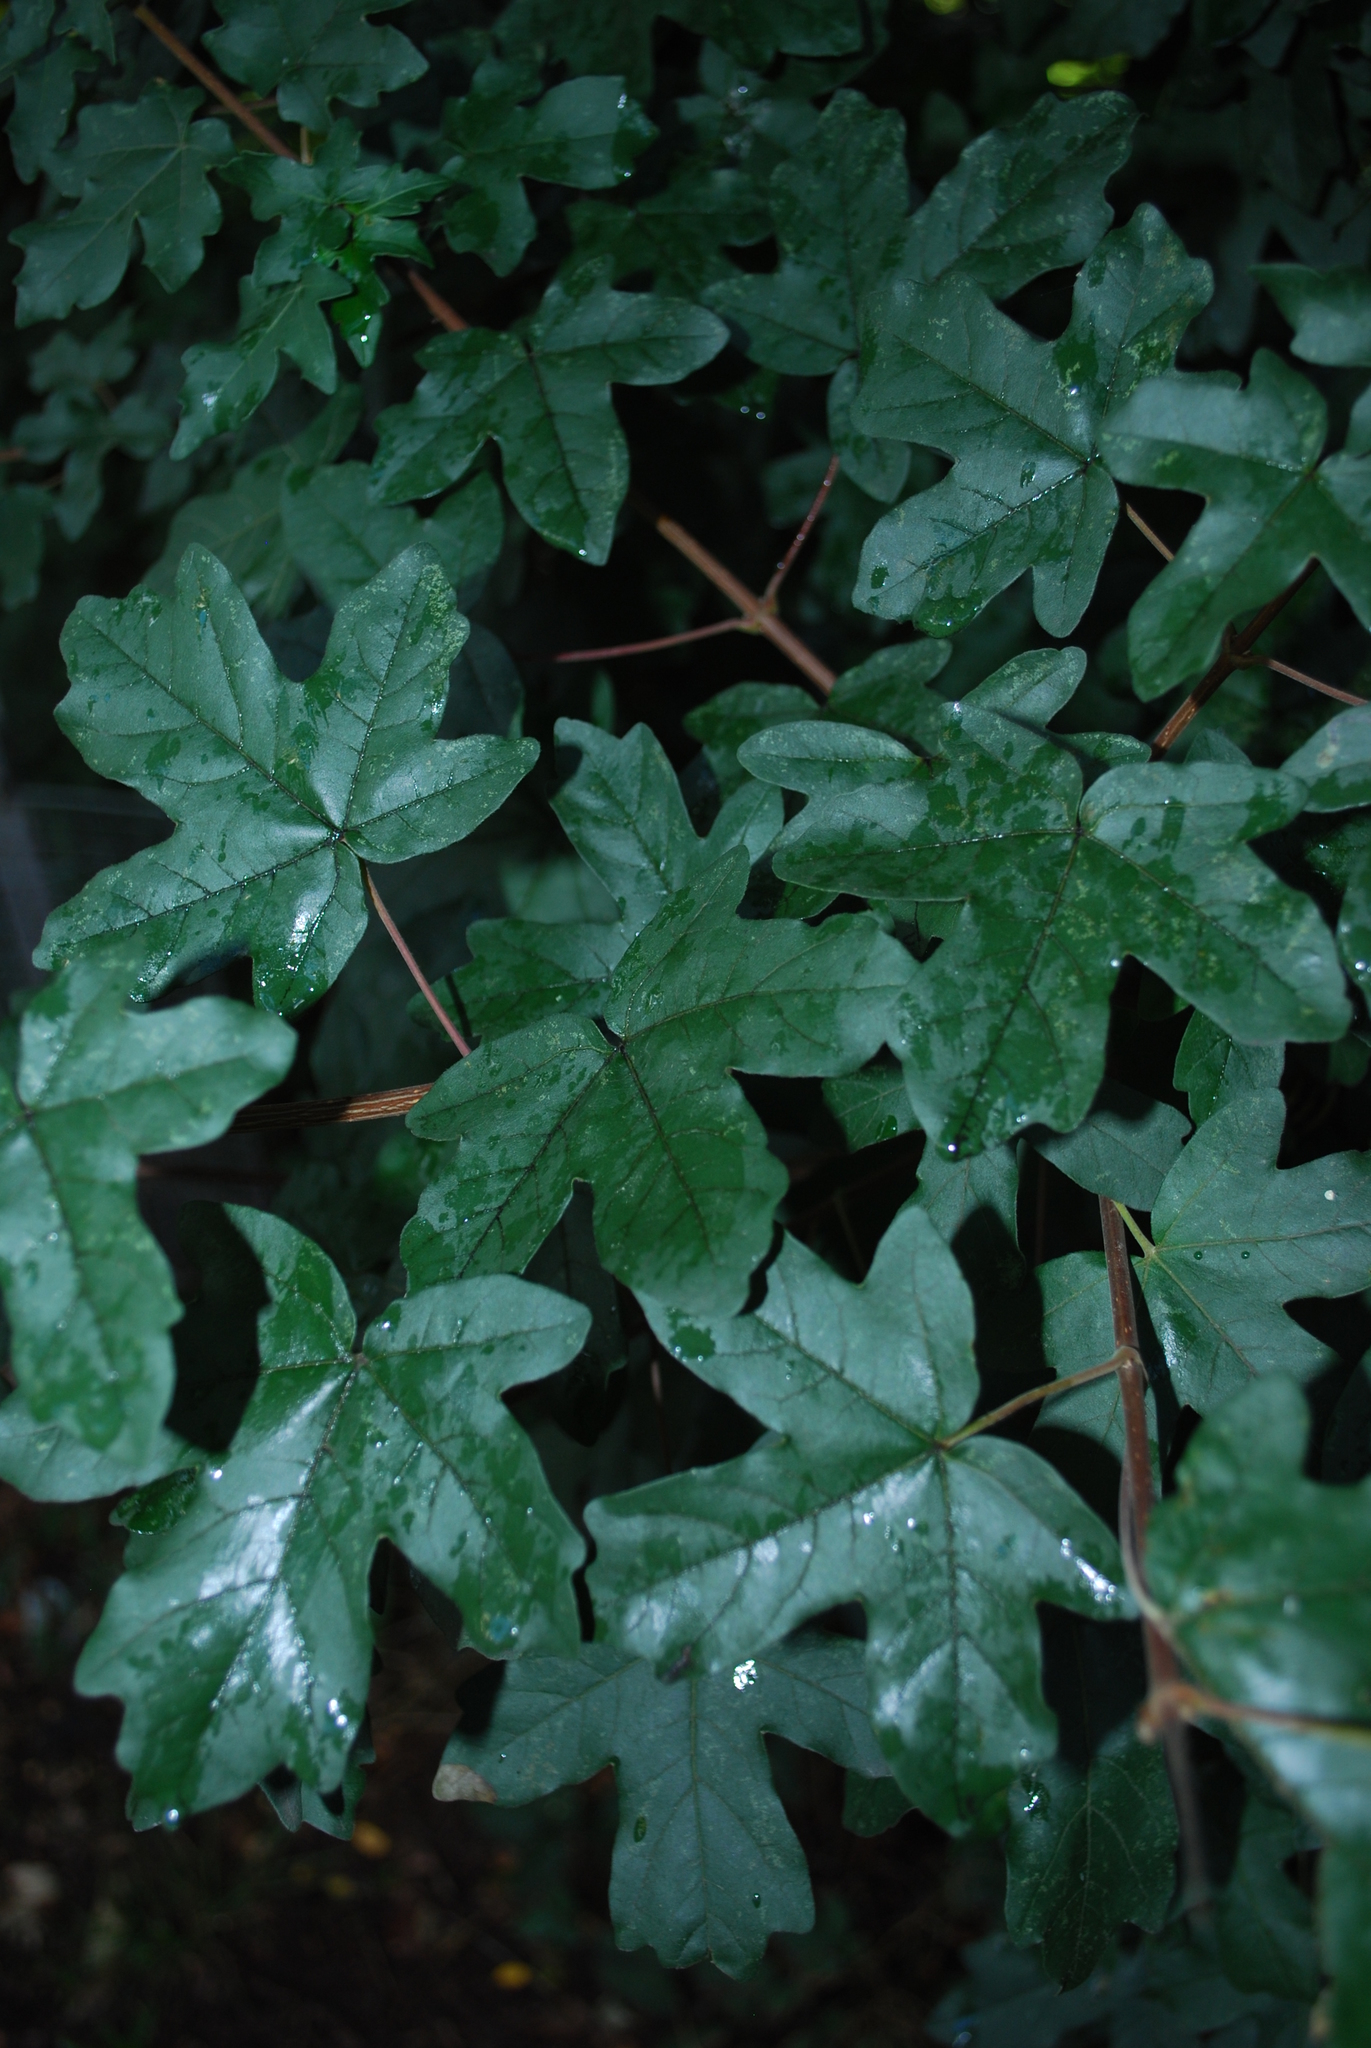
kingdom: Plantae
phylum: Tracheophyta
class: Magnoliopsida
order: Sapindales
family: Sapindaceae
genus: Acer
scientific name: Acer campestre
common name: Field maple
